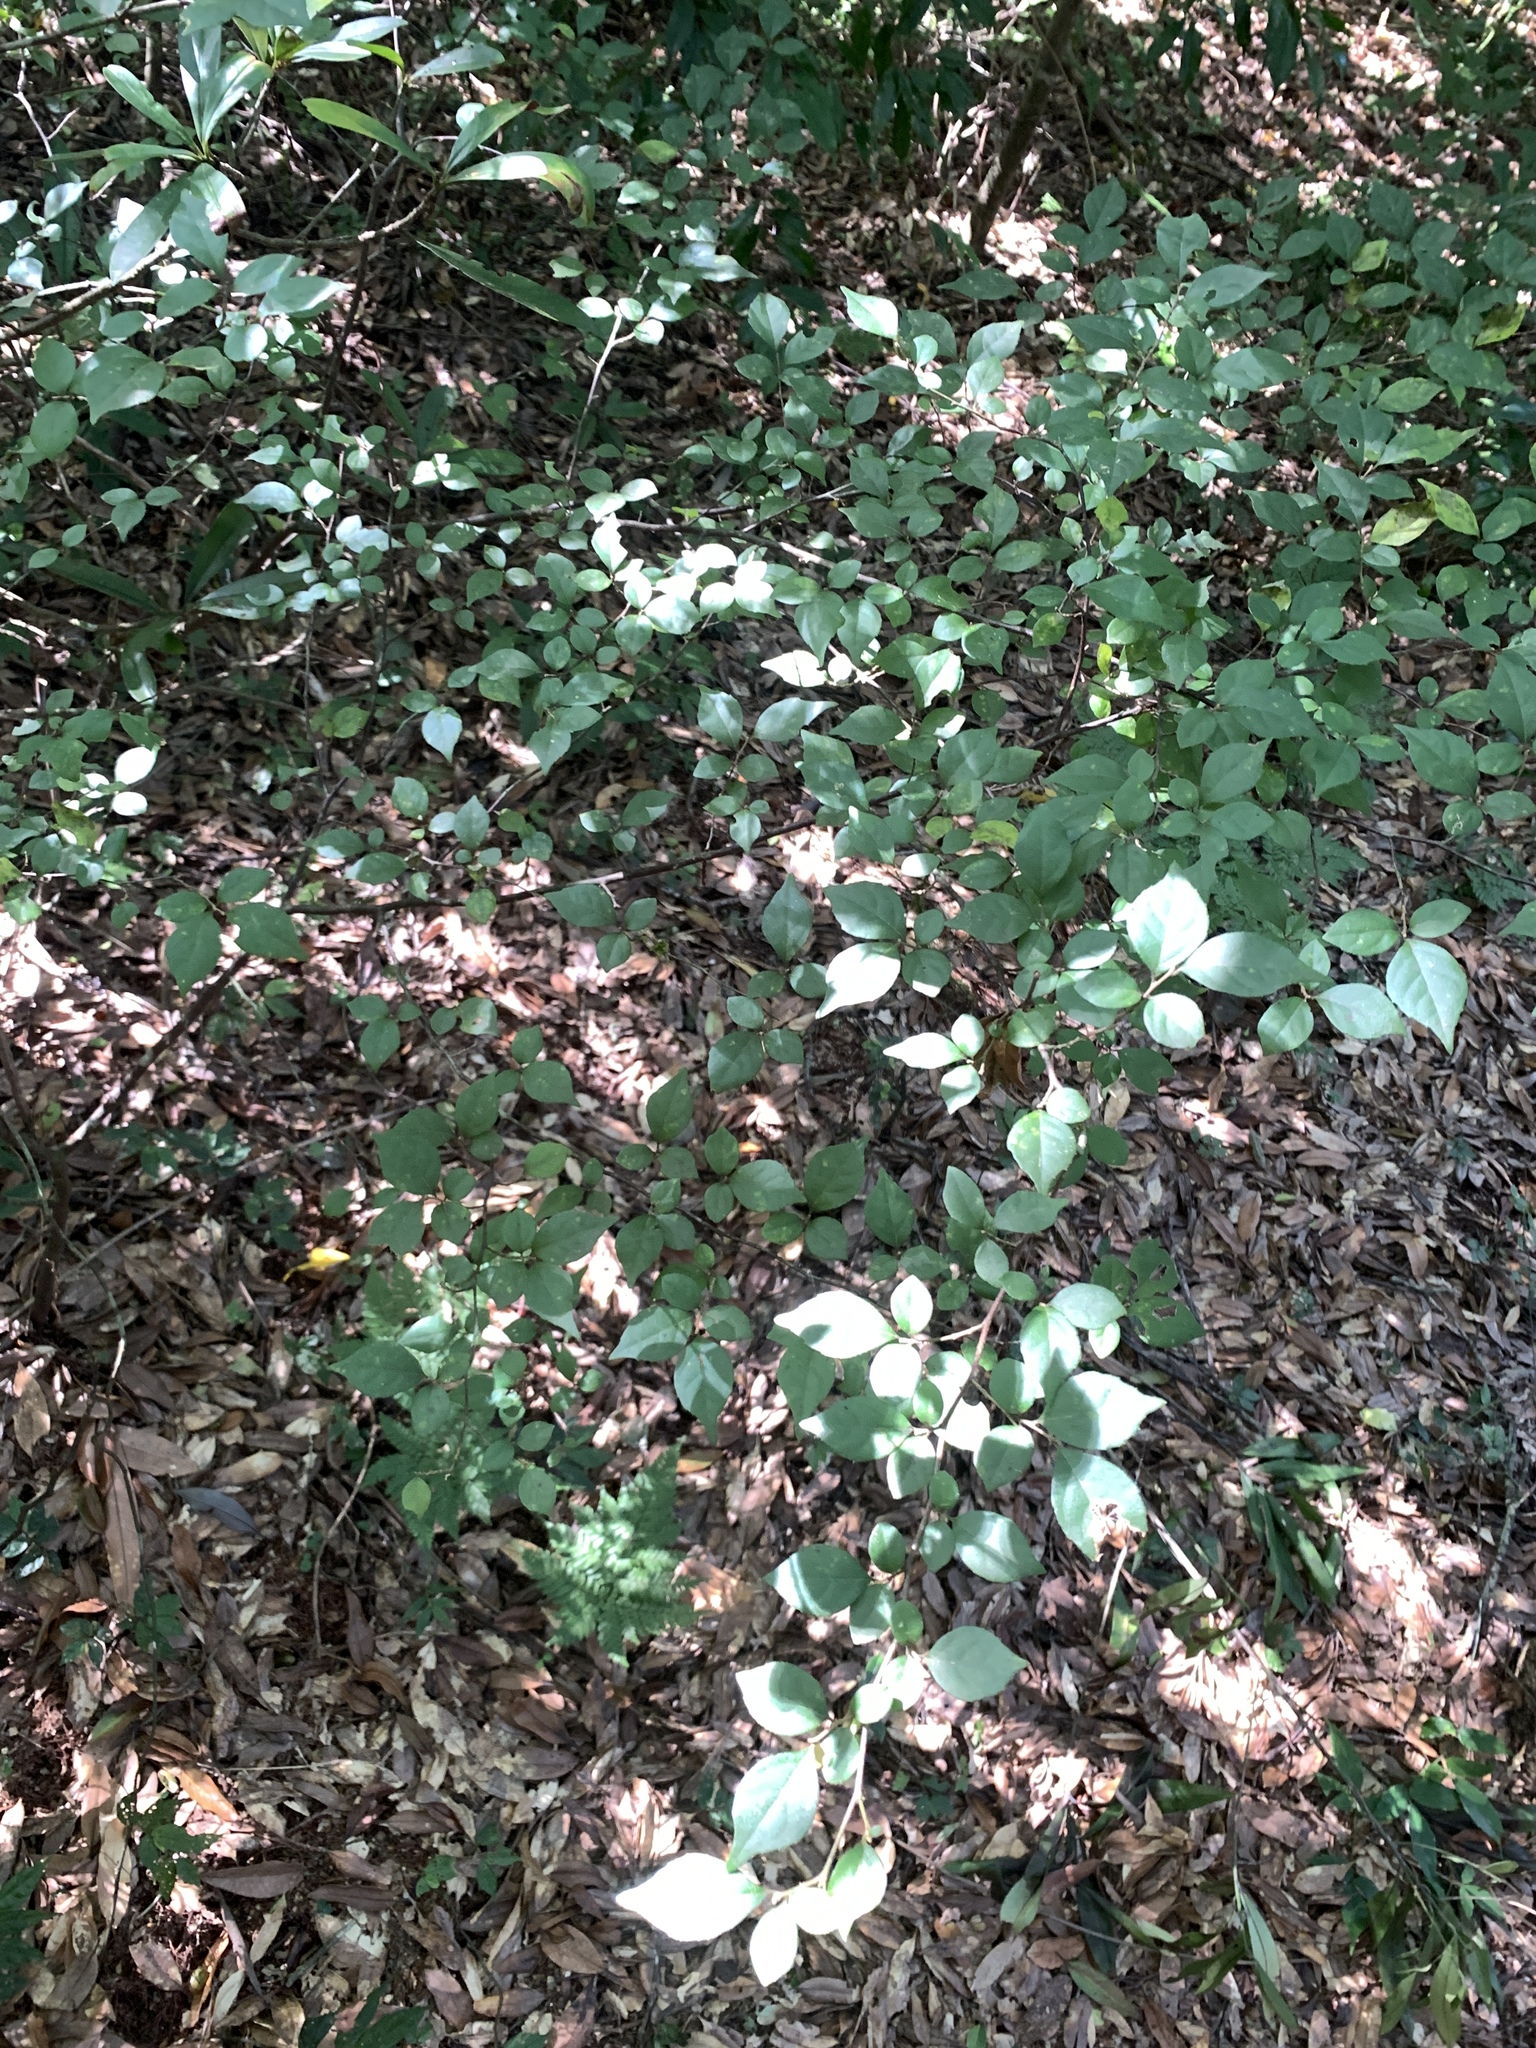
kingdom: Plantae
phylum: Tracheophyta
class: Magnoliopsida
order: Ericales
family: Styracaceae
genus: Styrax
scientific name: Styrax formosanus
